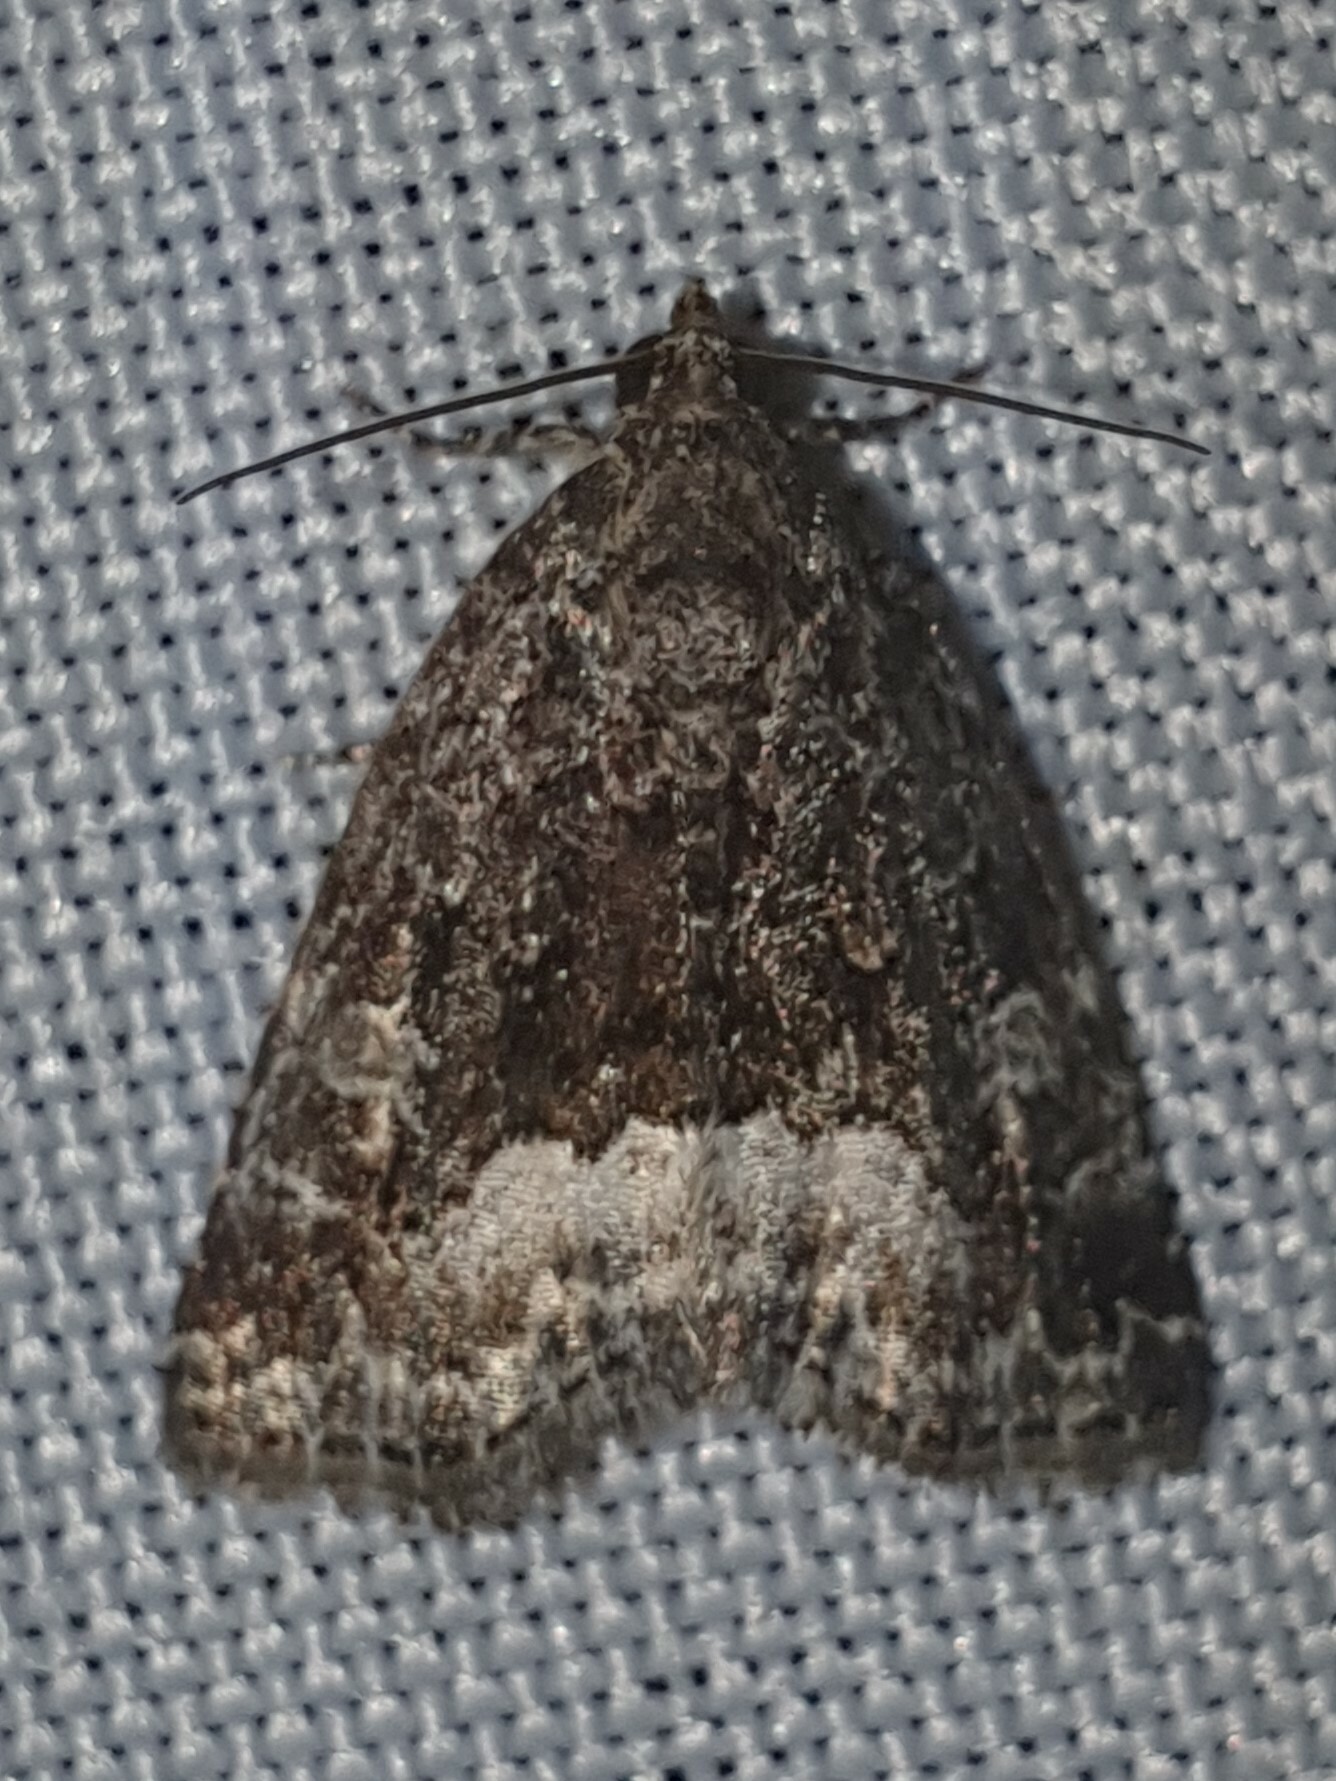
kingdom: Animalia
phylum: Arthropoda
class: Insecta
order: Lepidoptera
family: Noctuidae
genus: Deltote
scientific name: Deltote pygarga
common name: Marbled white spot
